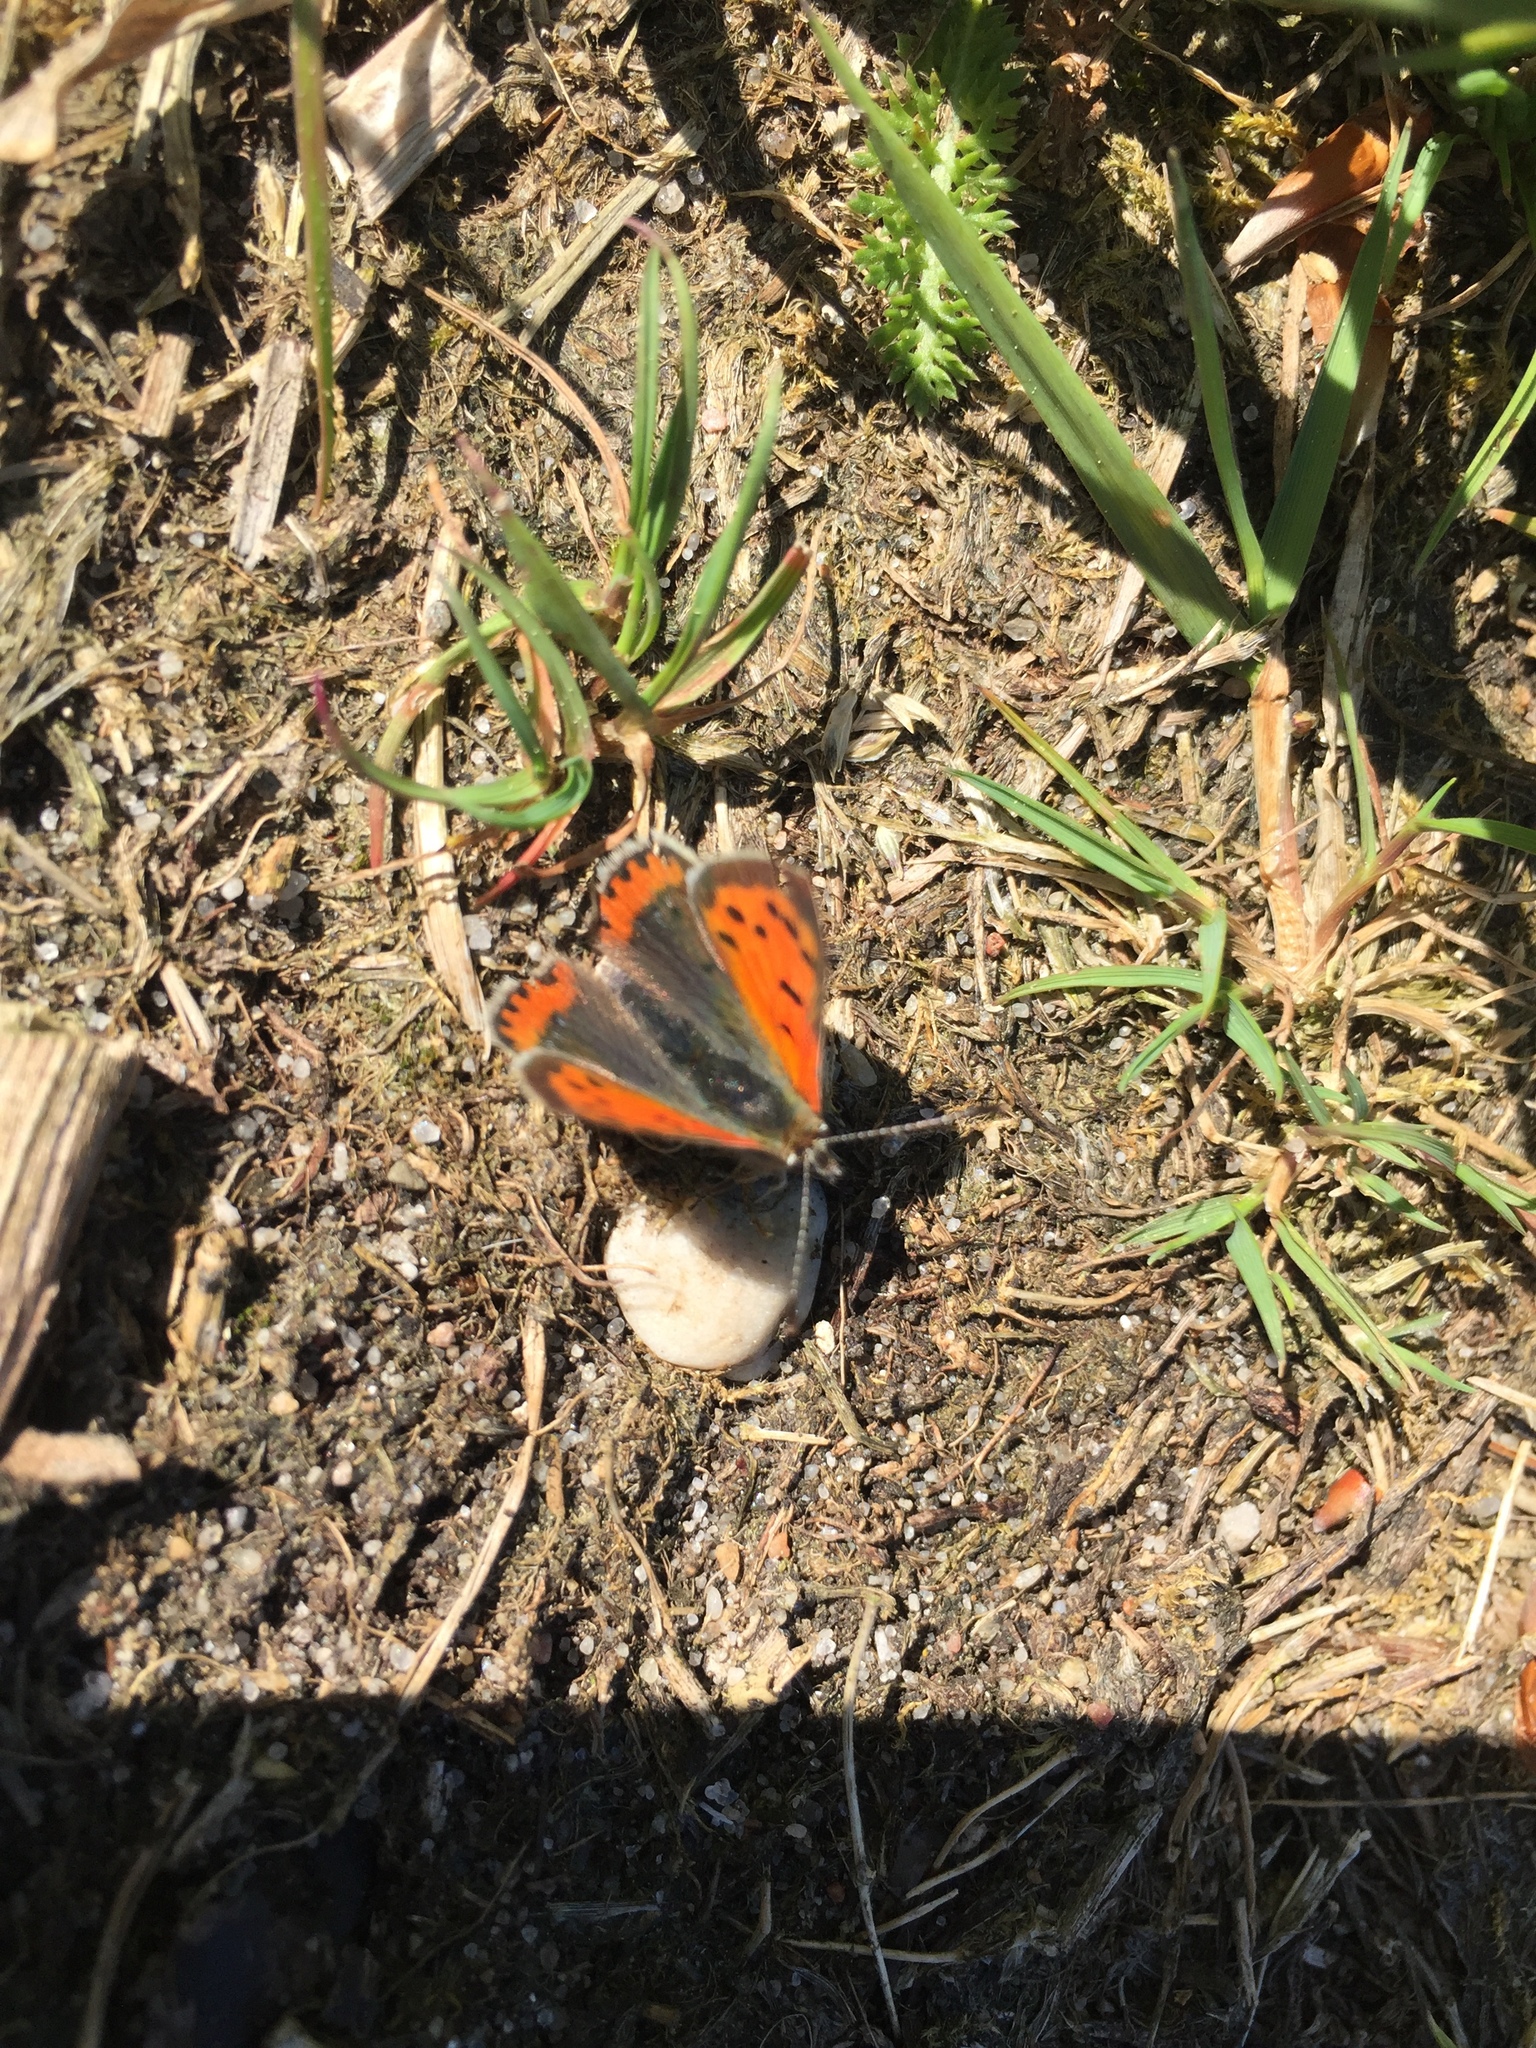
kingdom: Animalia
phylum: Arthropoda
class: Insecta
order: Lepidoptera
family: Lycaenidae
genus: Lycaena
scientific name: Lycaena phlaeas
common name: Small copper
